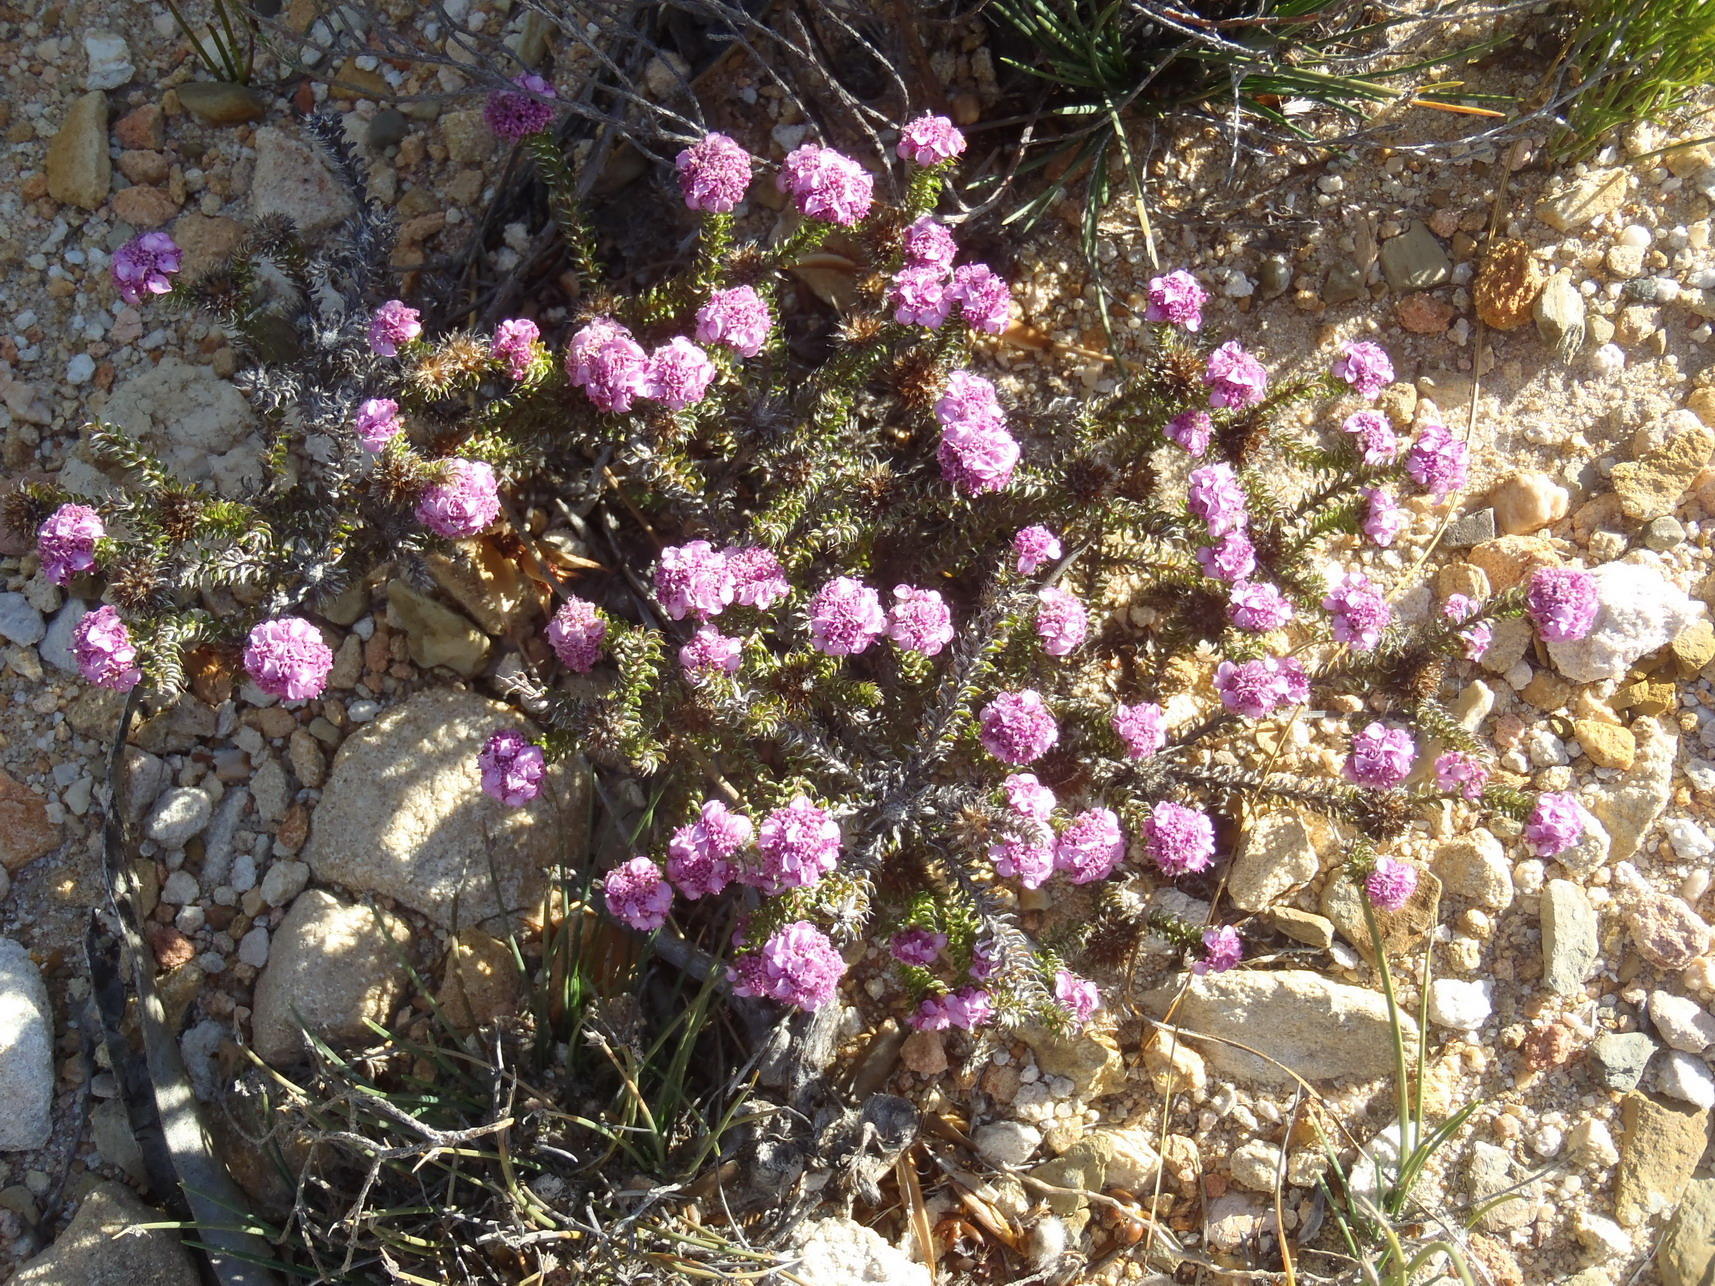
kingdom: Plantae
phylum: Tracheophyta
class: Magnoliopsida
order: Asterales
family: Asteraceae
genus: Disparago
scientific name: Disparago tortilis
